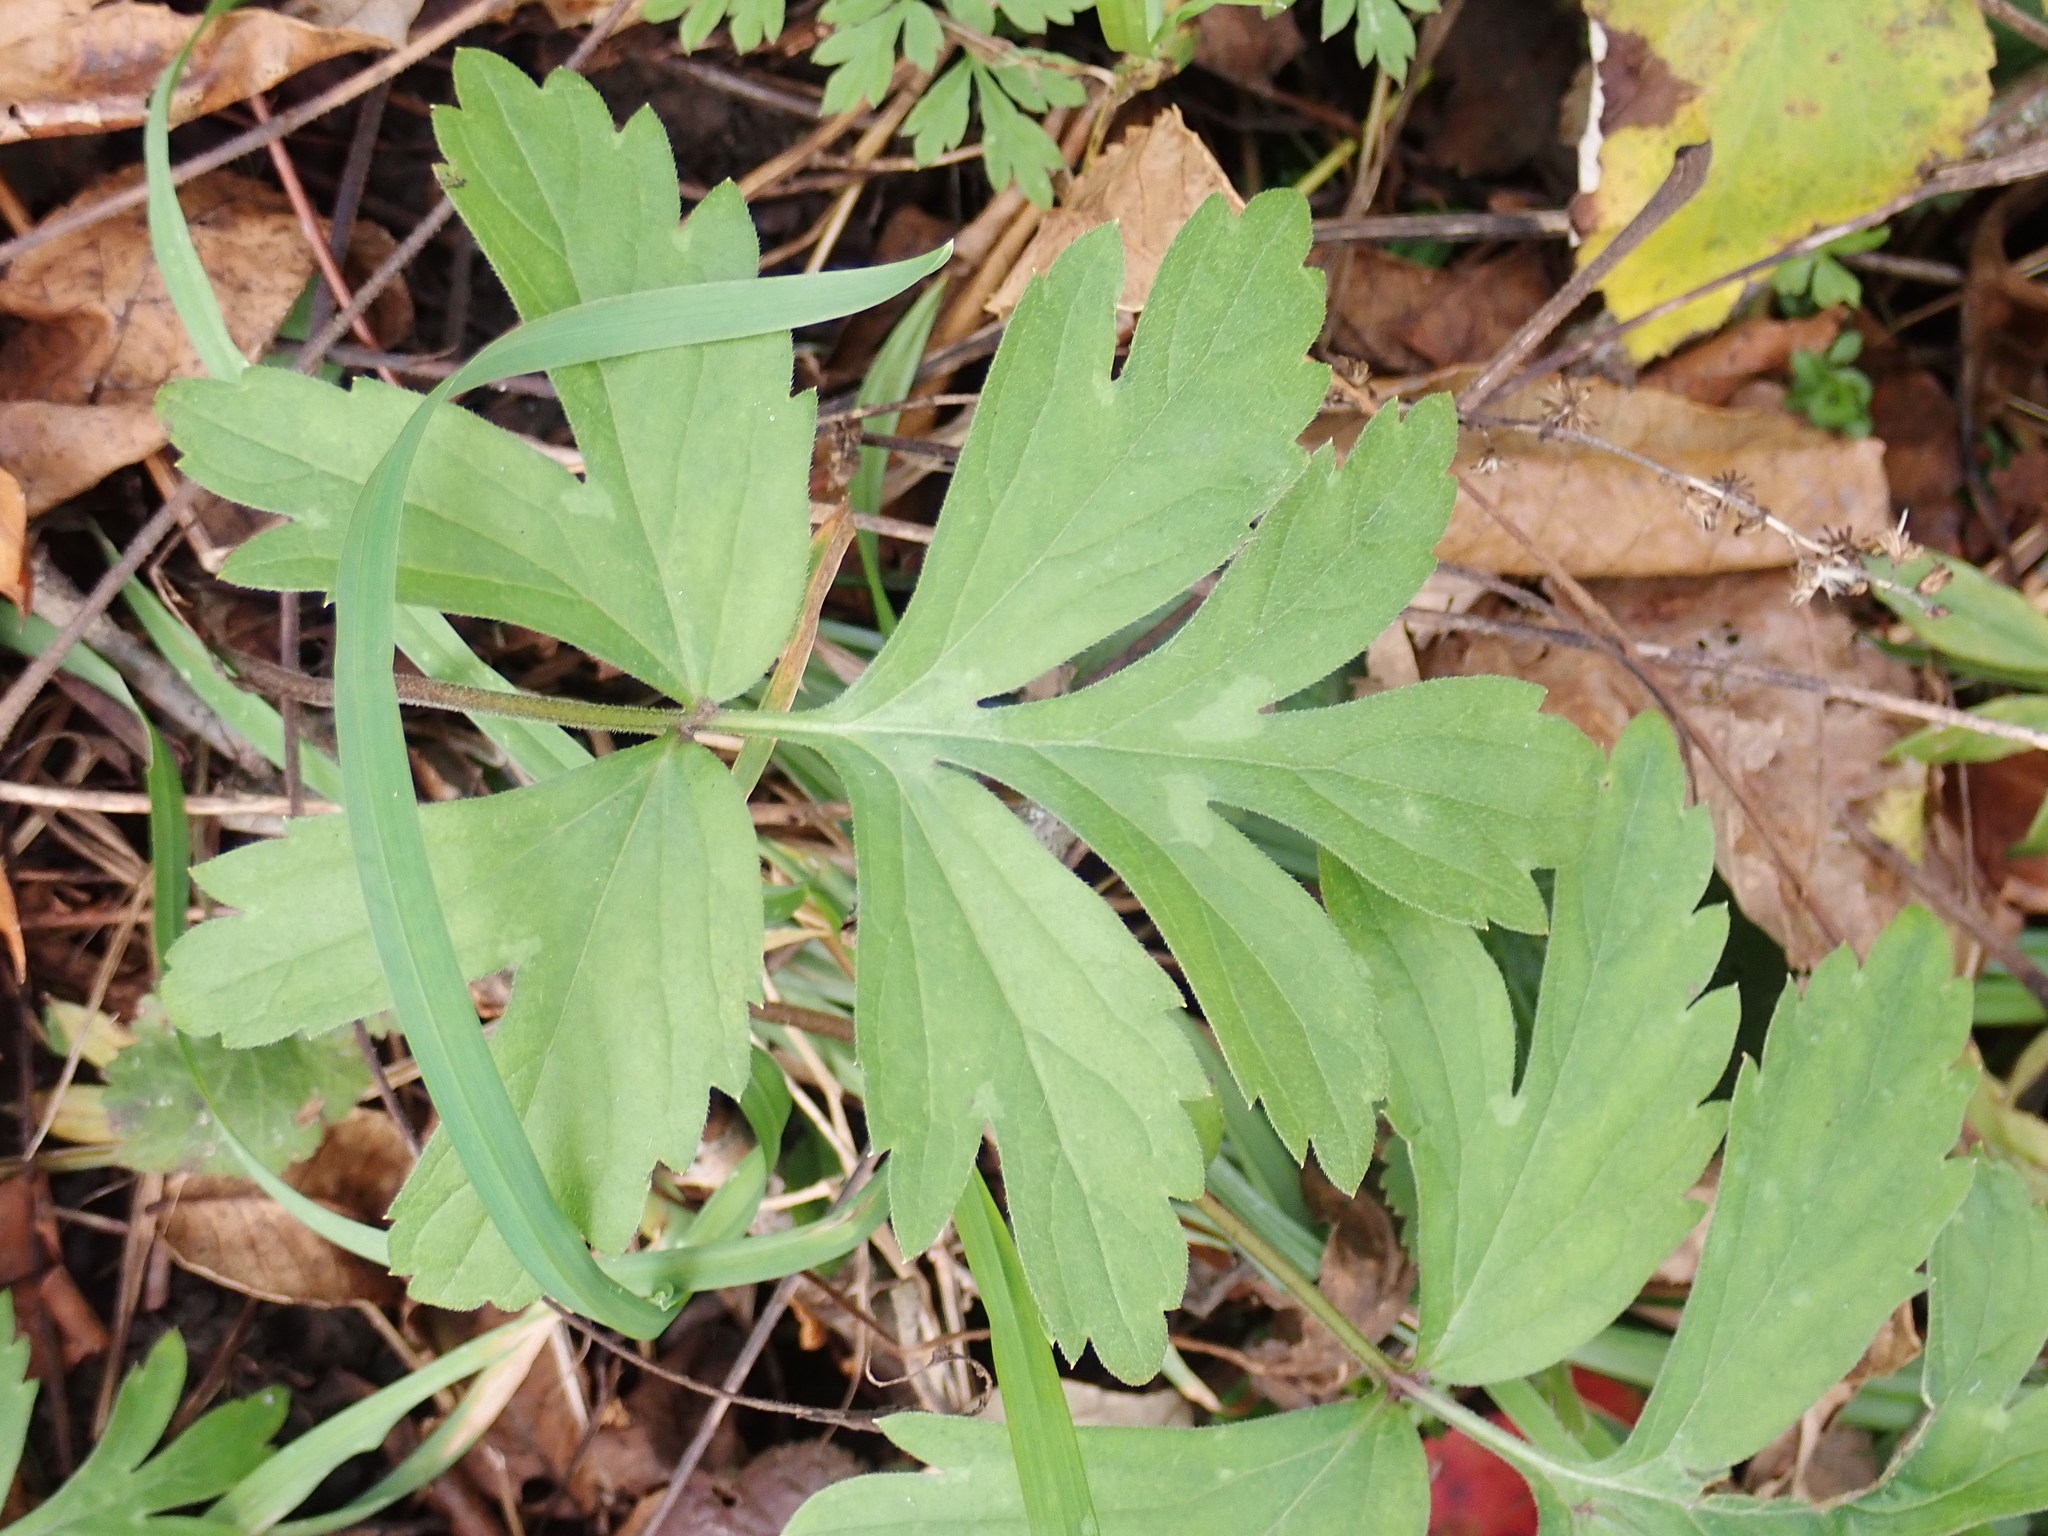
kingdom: Plantae
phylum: Tracheophyta
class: Magnoliopsida
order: Boraginales
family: Hydrophyllaceae
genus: Hydrophyllum
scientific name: Hydrophyllum virginianum
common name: Virginia waterleaf
